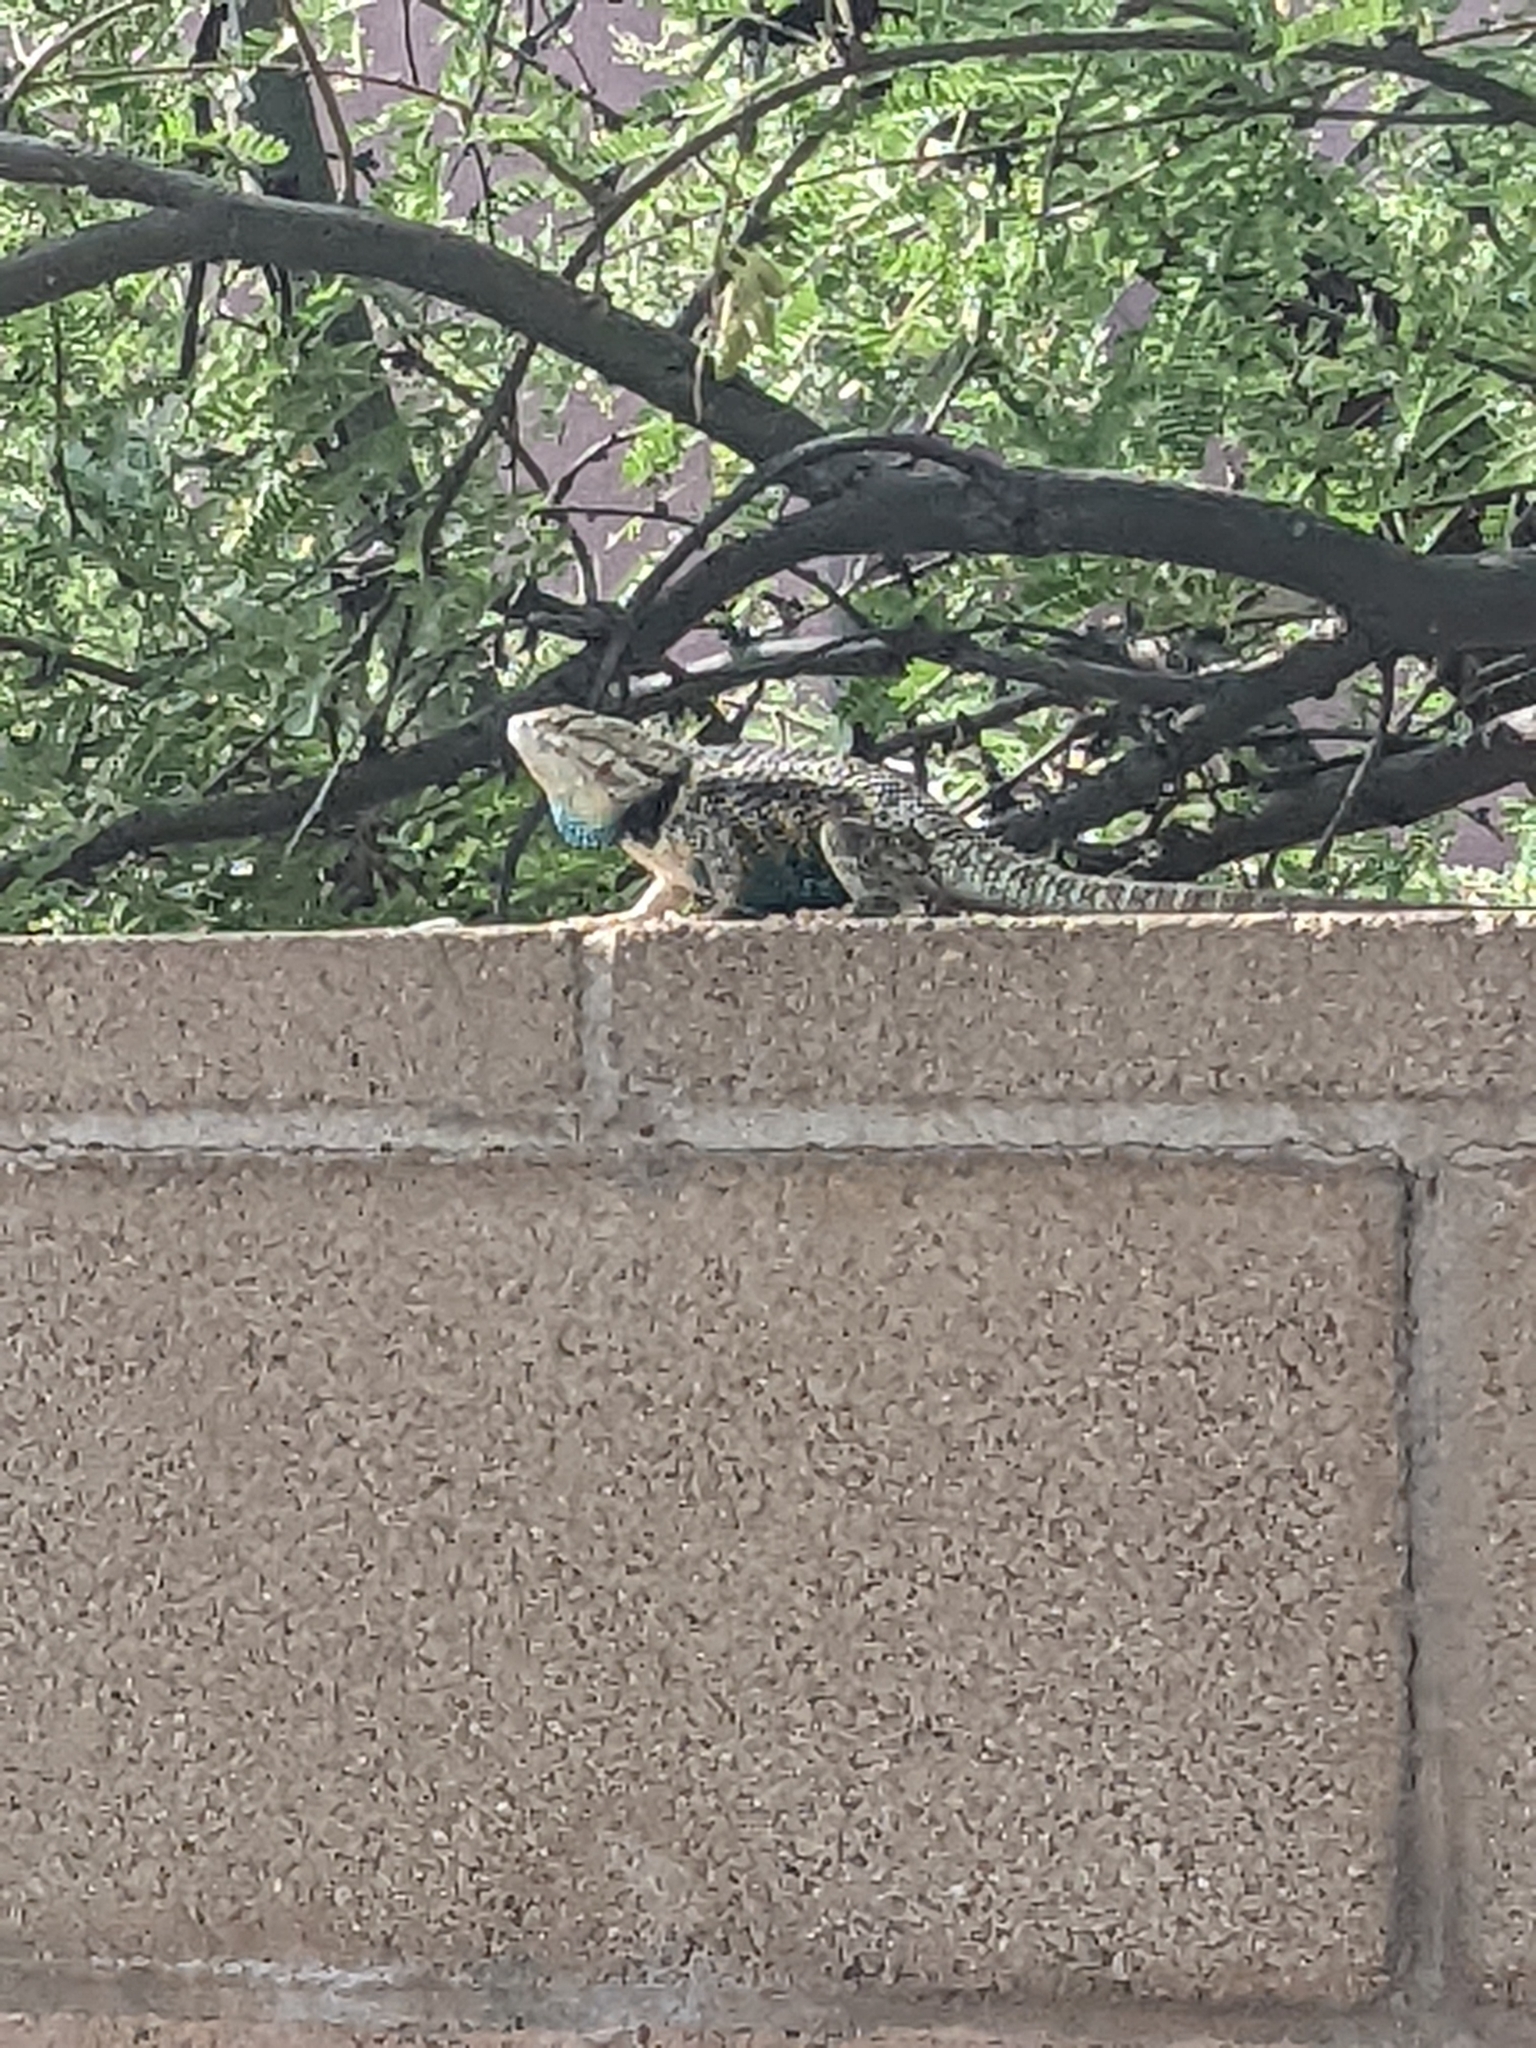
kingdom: Animalia
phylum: Chordata
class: Squamata
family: Phrynosomatidae
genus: Sceloporus
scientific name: Sceloporus magister
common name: Desert spiny lizard
